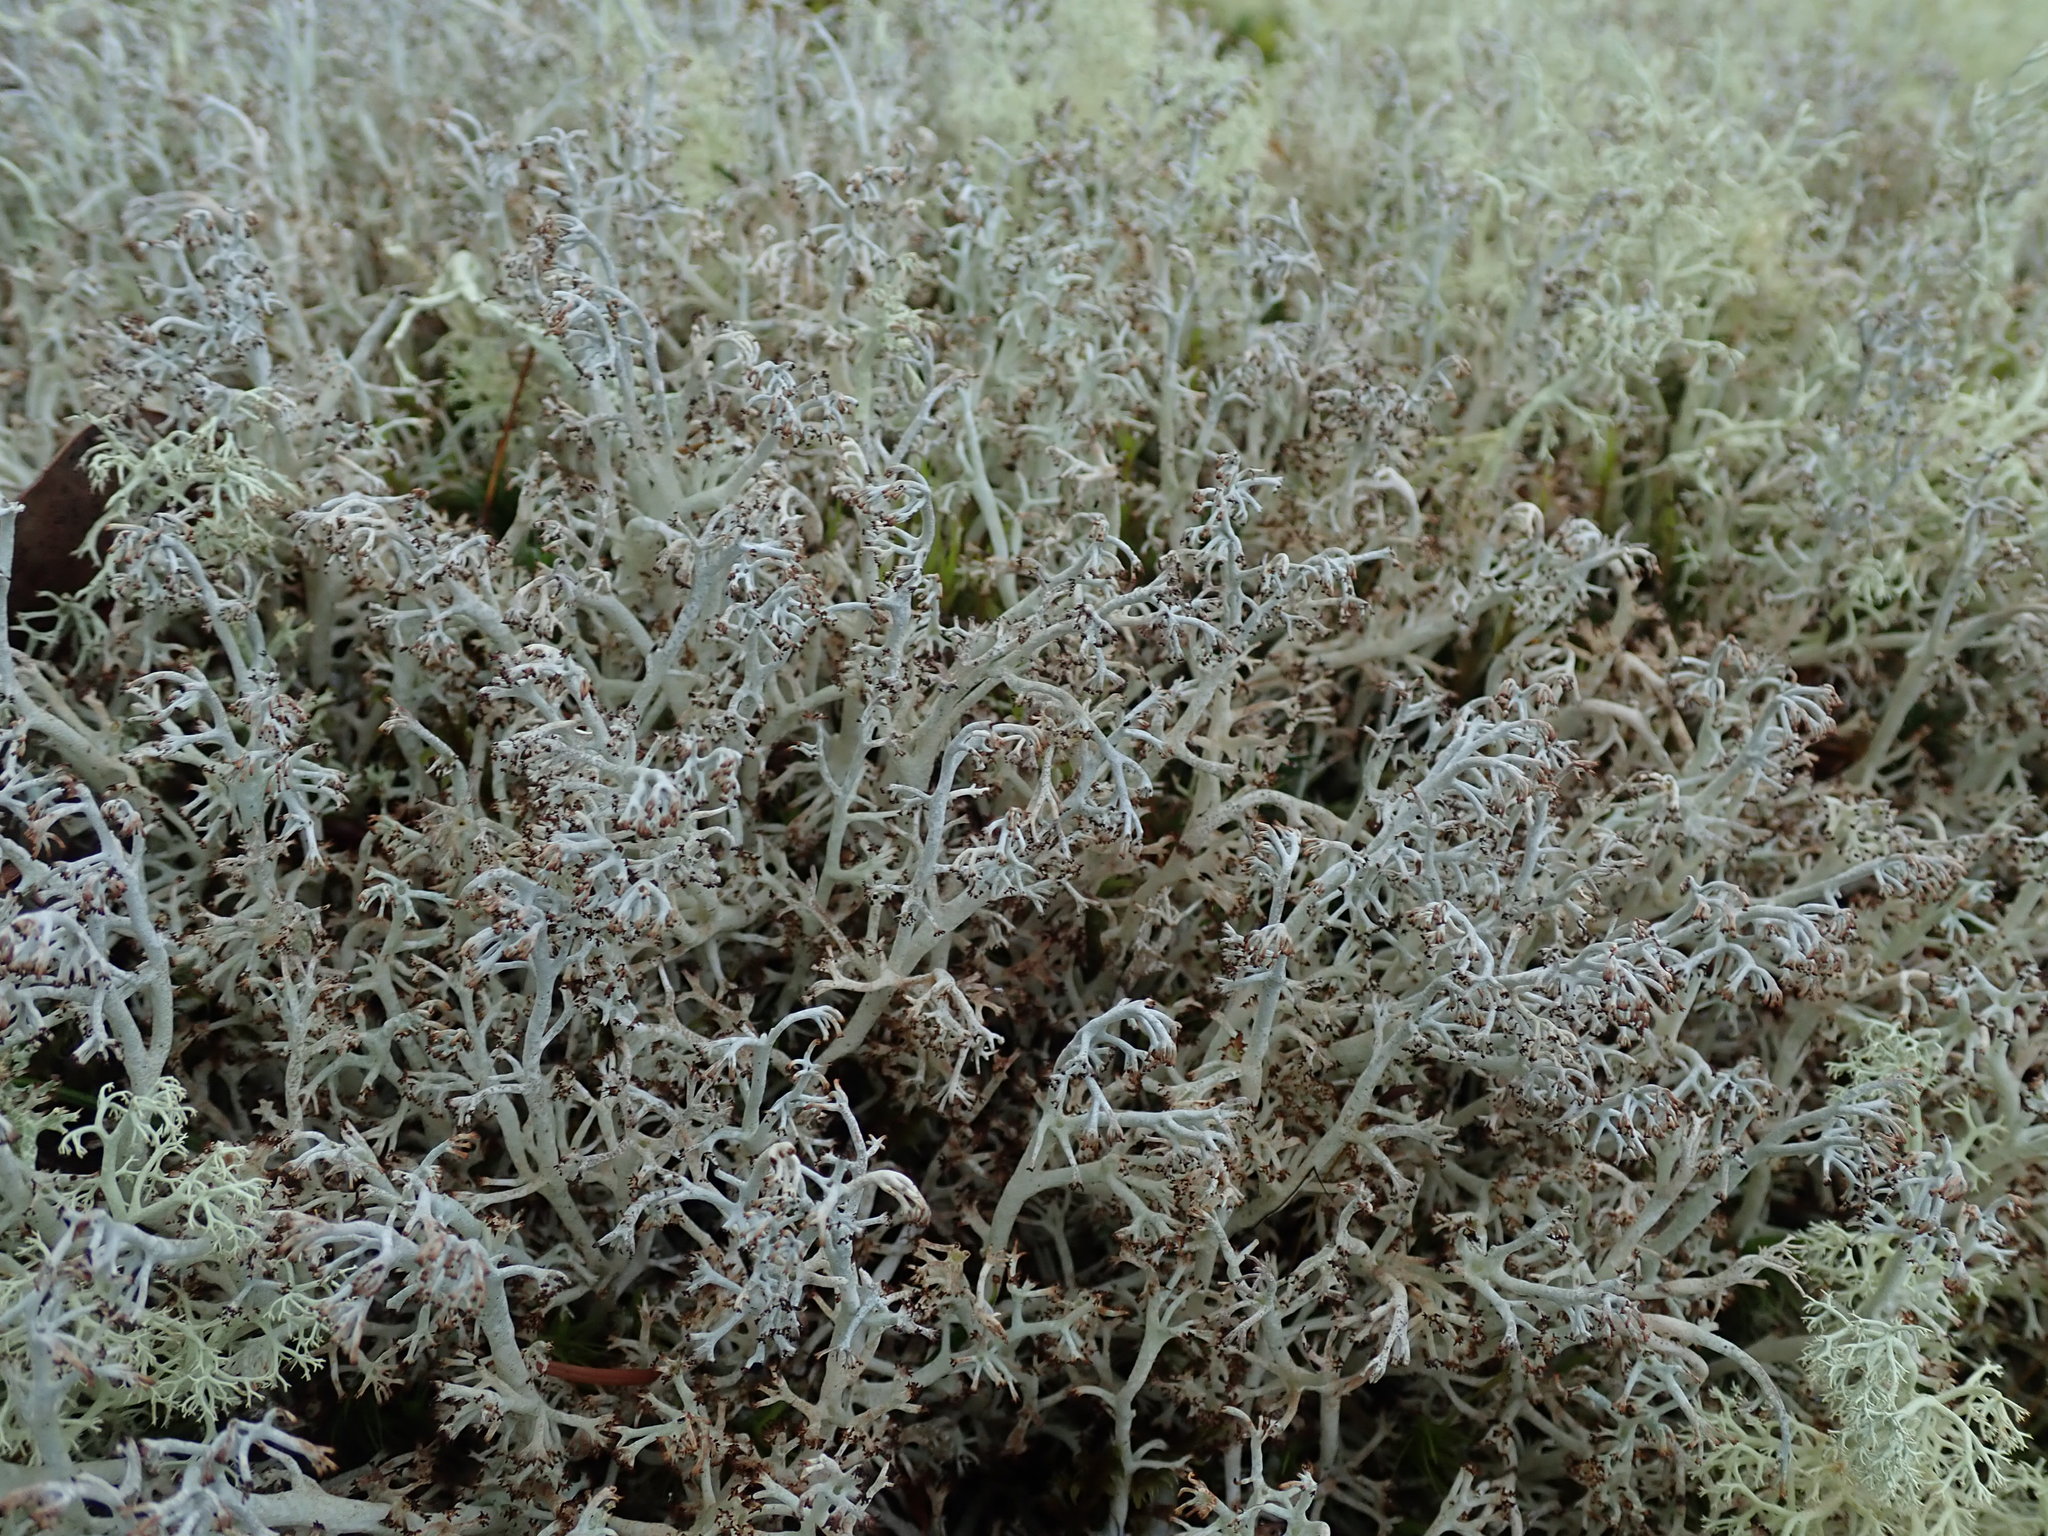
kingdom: Fungi
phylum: Ascomycota
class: Lecanoromycetes
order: Lecanorales
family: Cladoniaceae
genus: Cladonia
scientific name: Cladonia rangiferina
